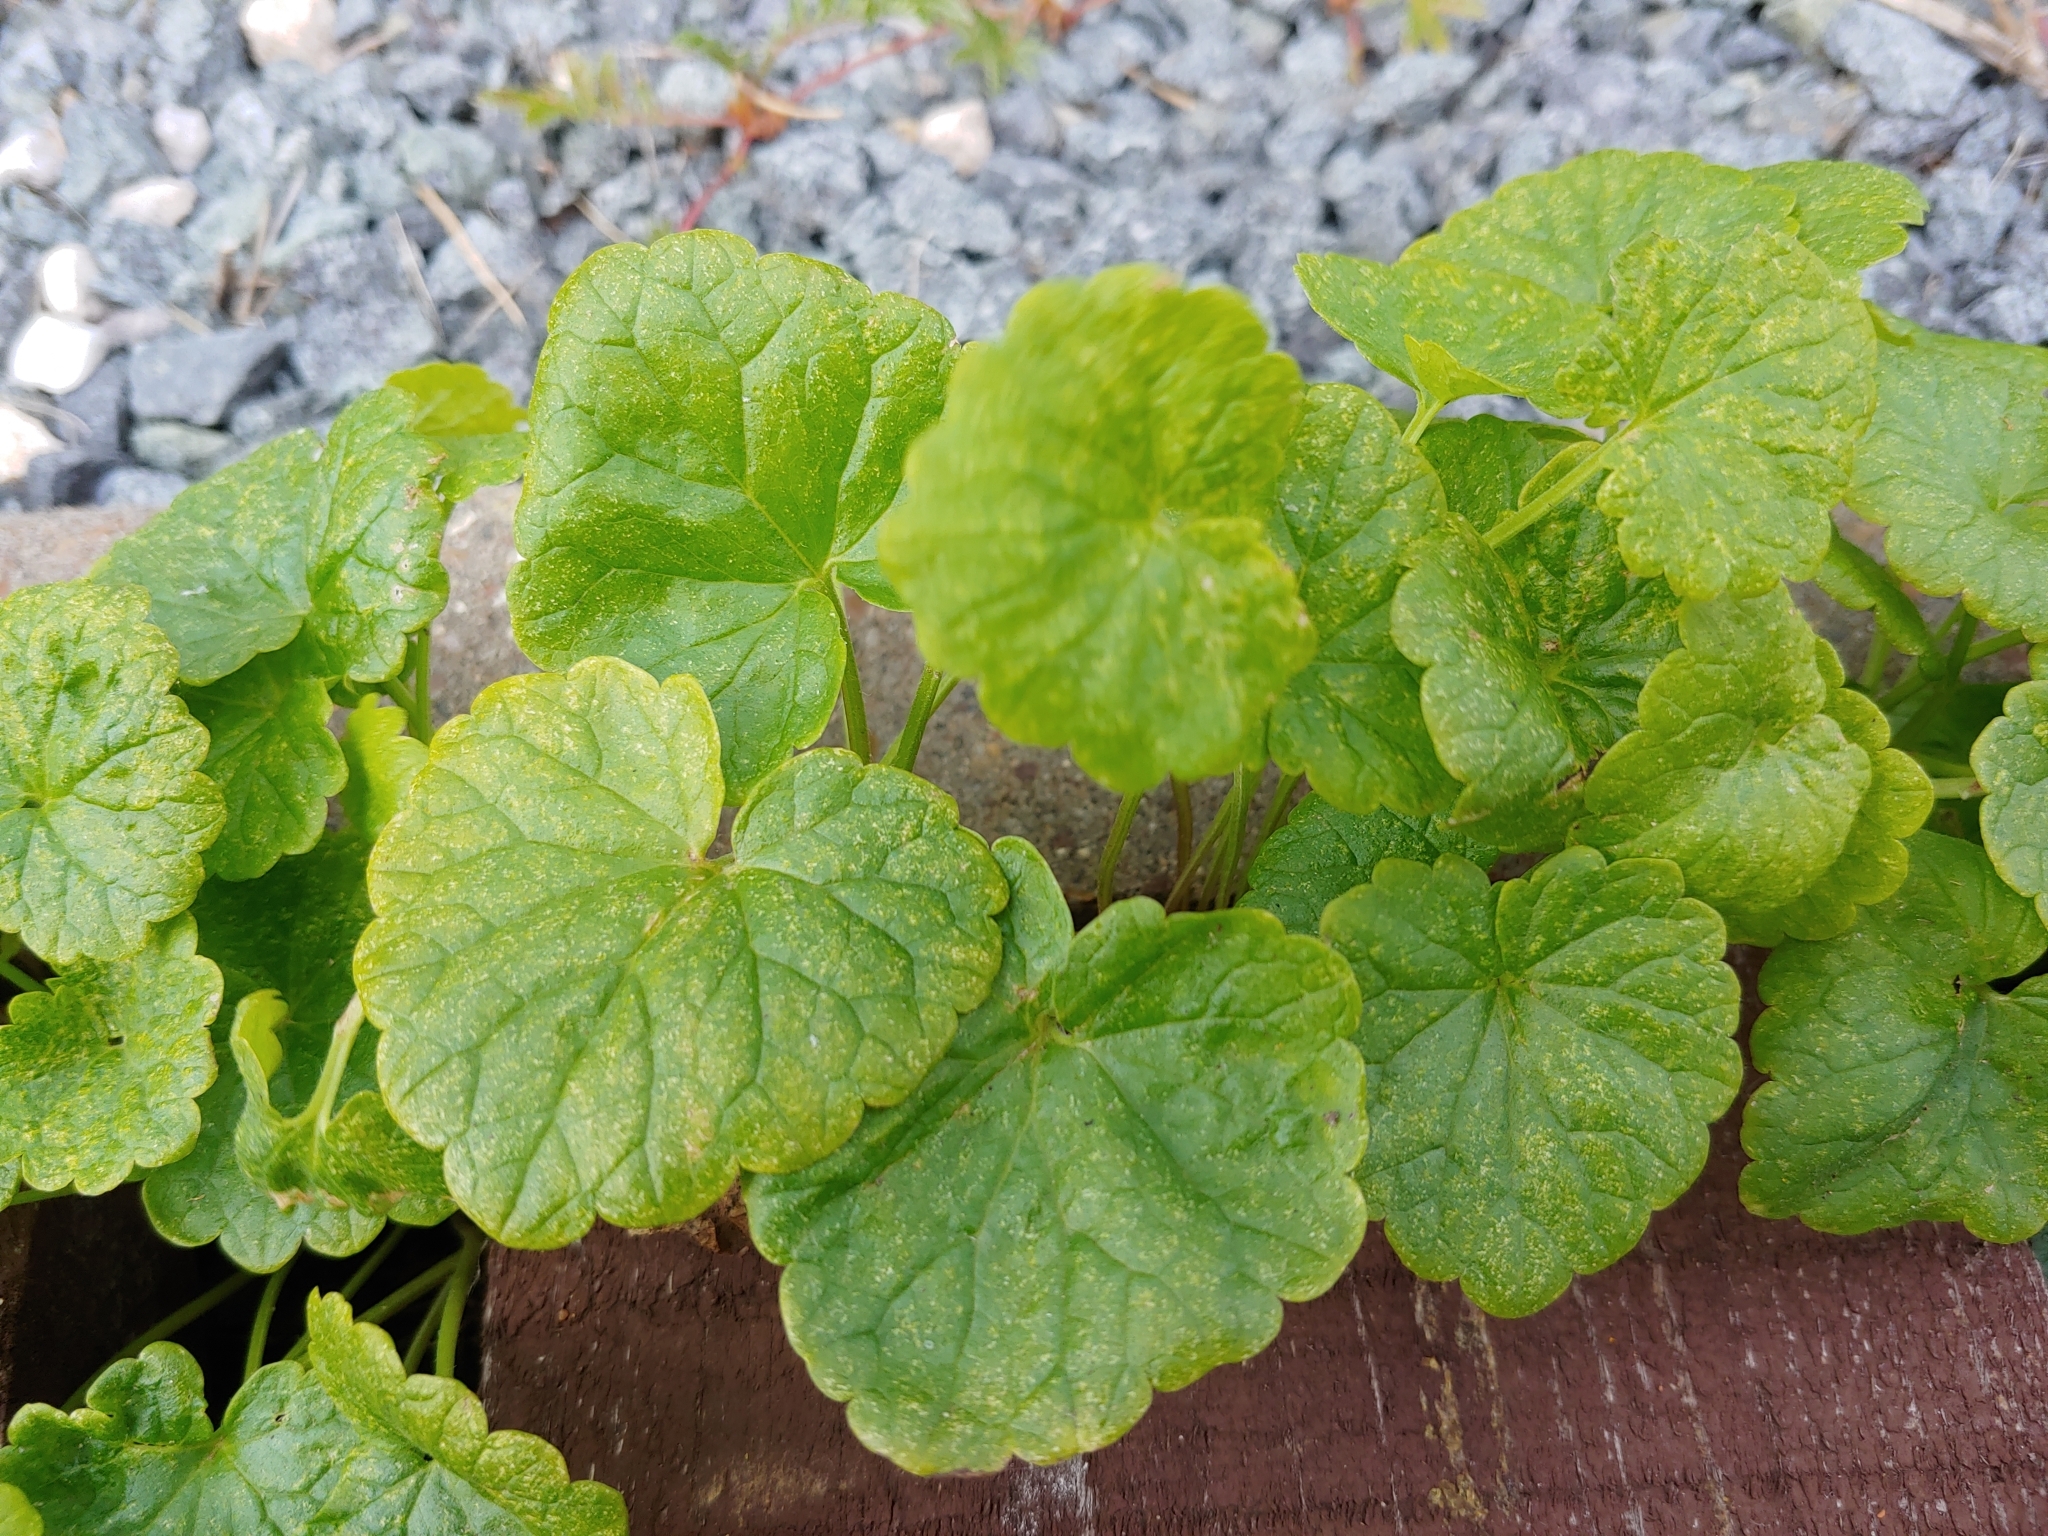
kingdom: Plantae
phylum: Tracheophyta
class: Magnoliopsida
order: Lamiales
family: Lamiaceae
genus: Glechoma
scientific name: Glechoma hederacea
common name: Ground ivy
